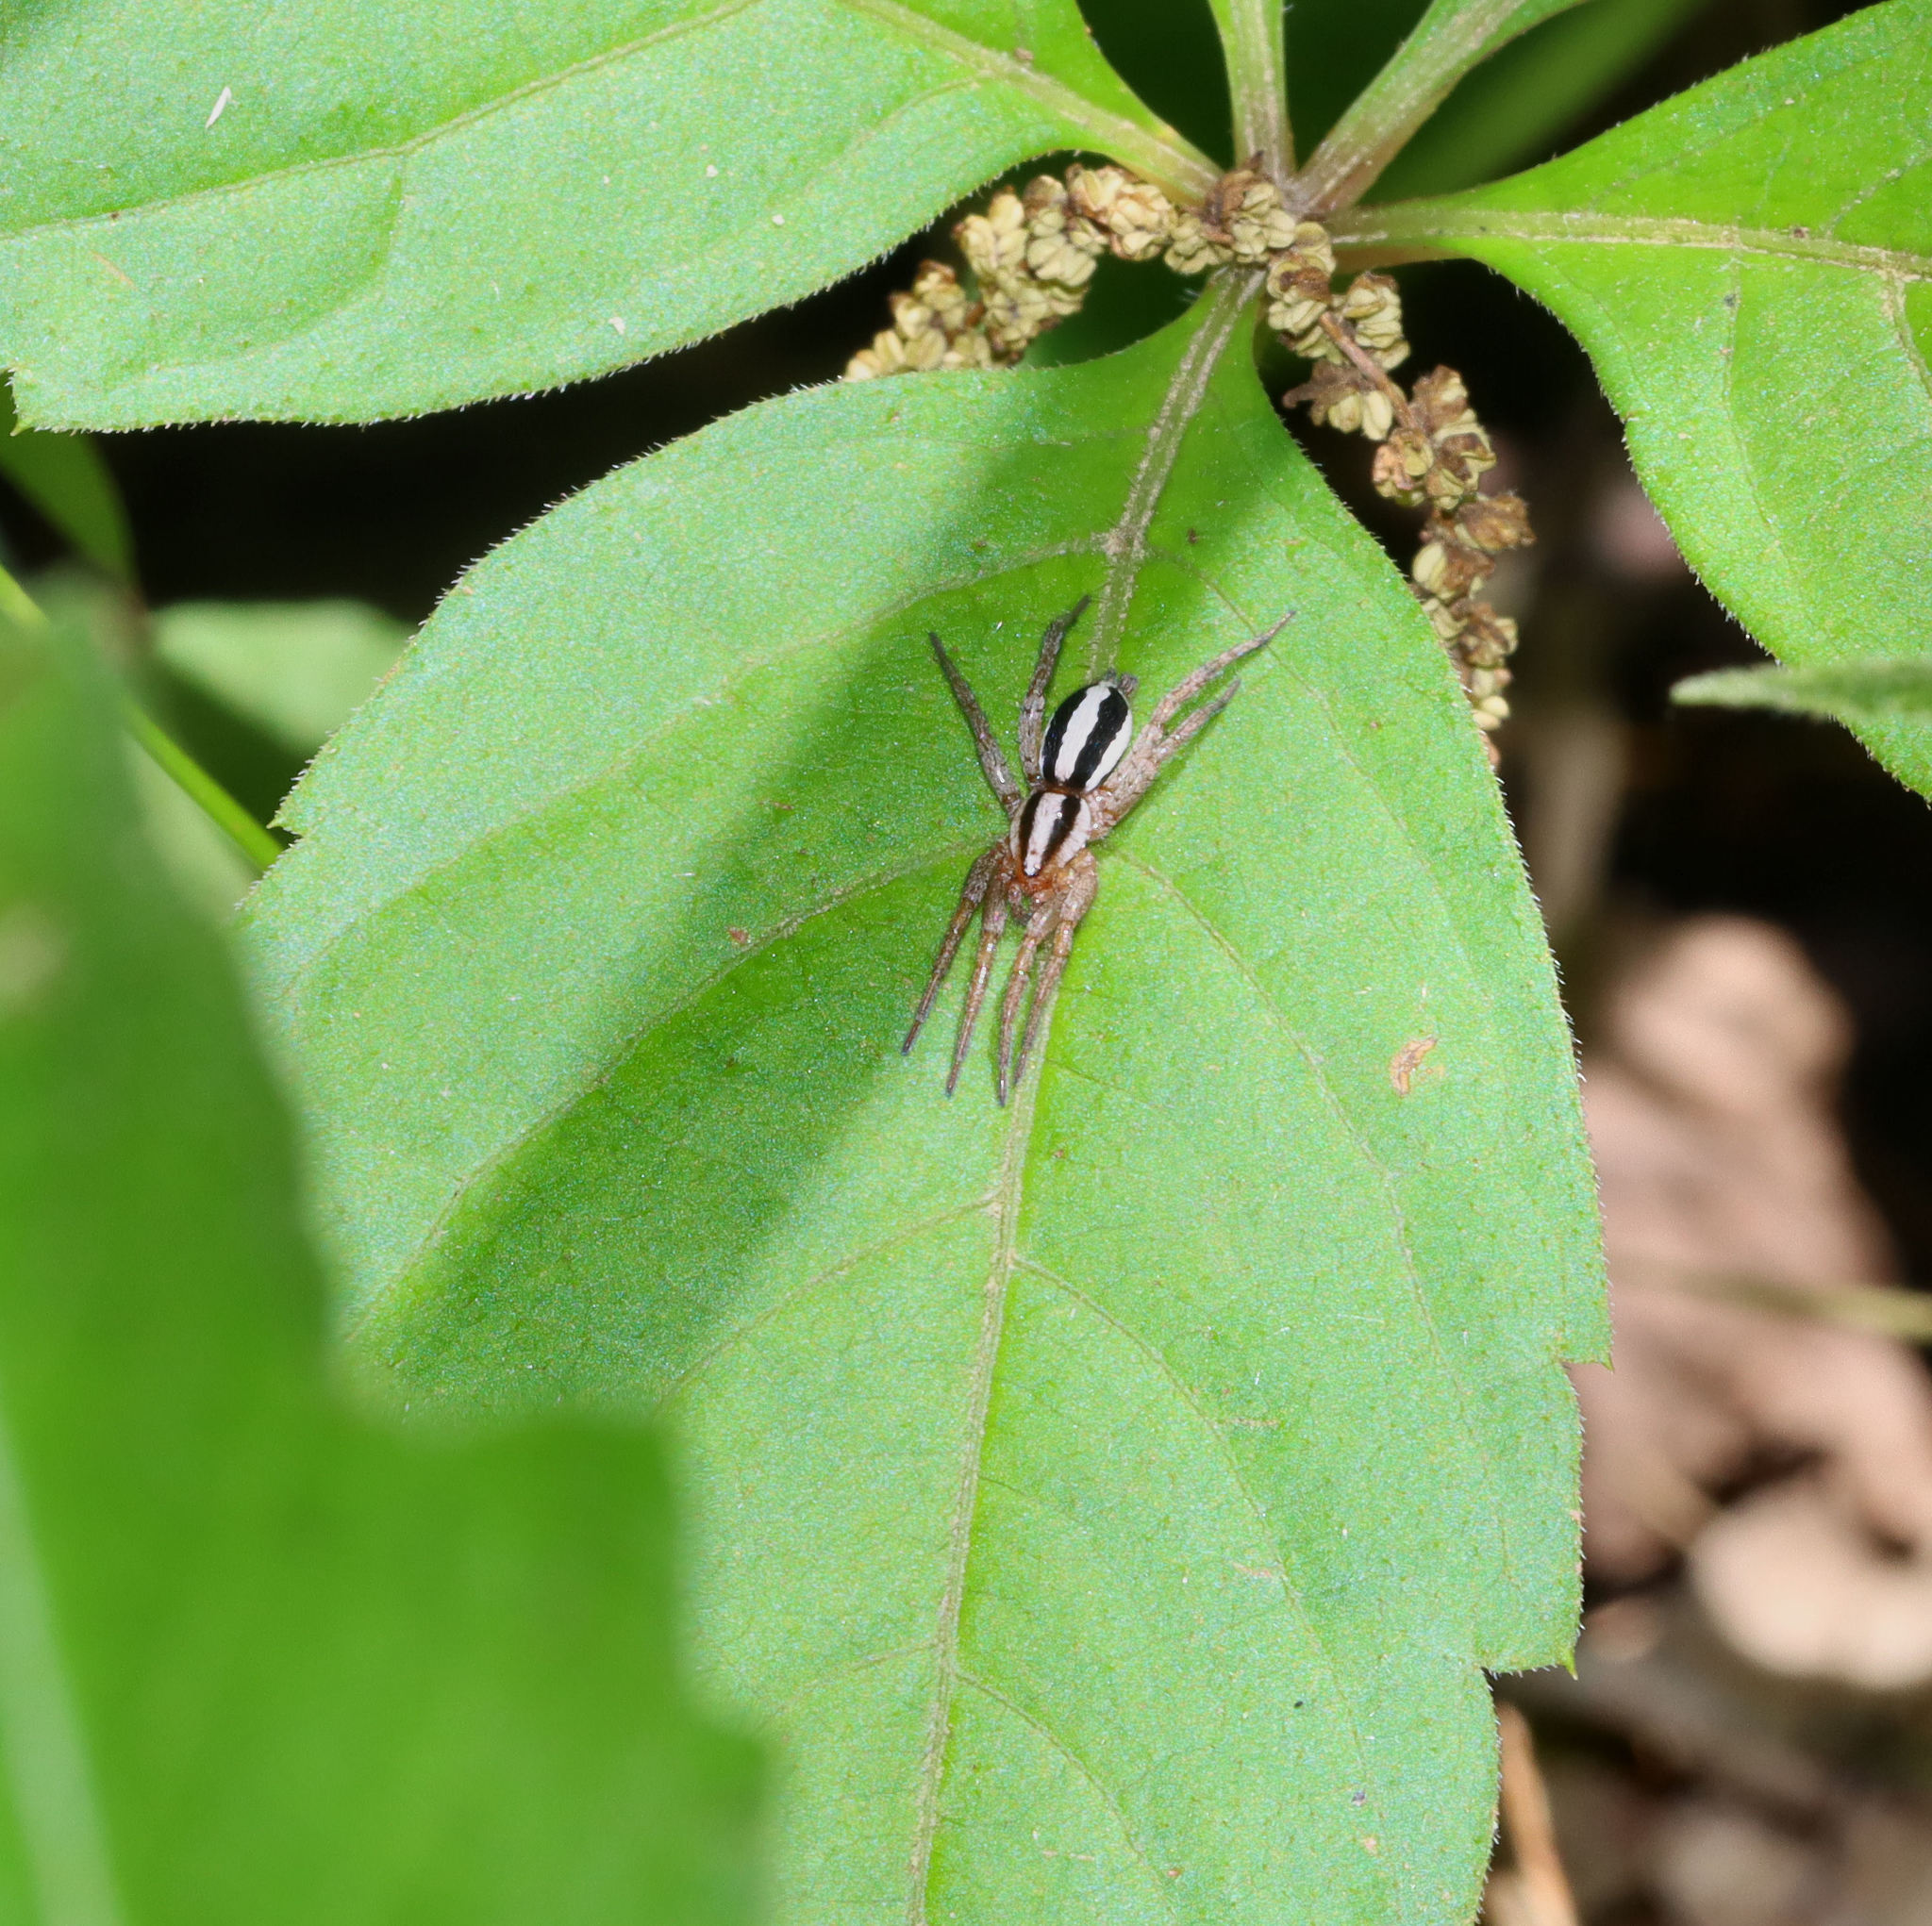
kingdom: Animalia
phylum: Arthropoda
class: Arachnida
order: Araneae
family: Gnaphosidae
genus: Cesonia
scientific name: Cesonia bilineata
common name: Two-lined stealthy ground spider
